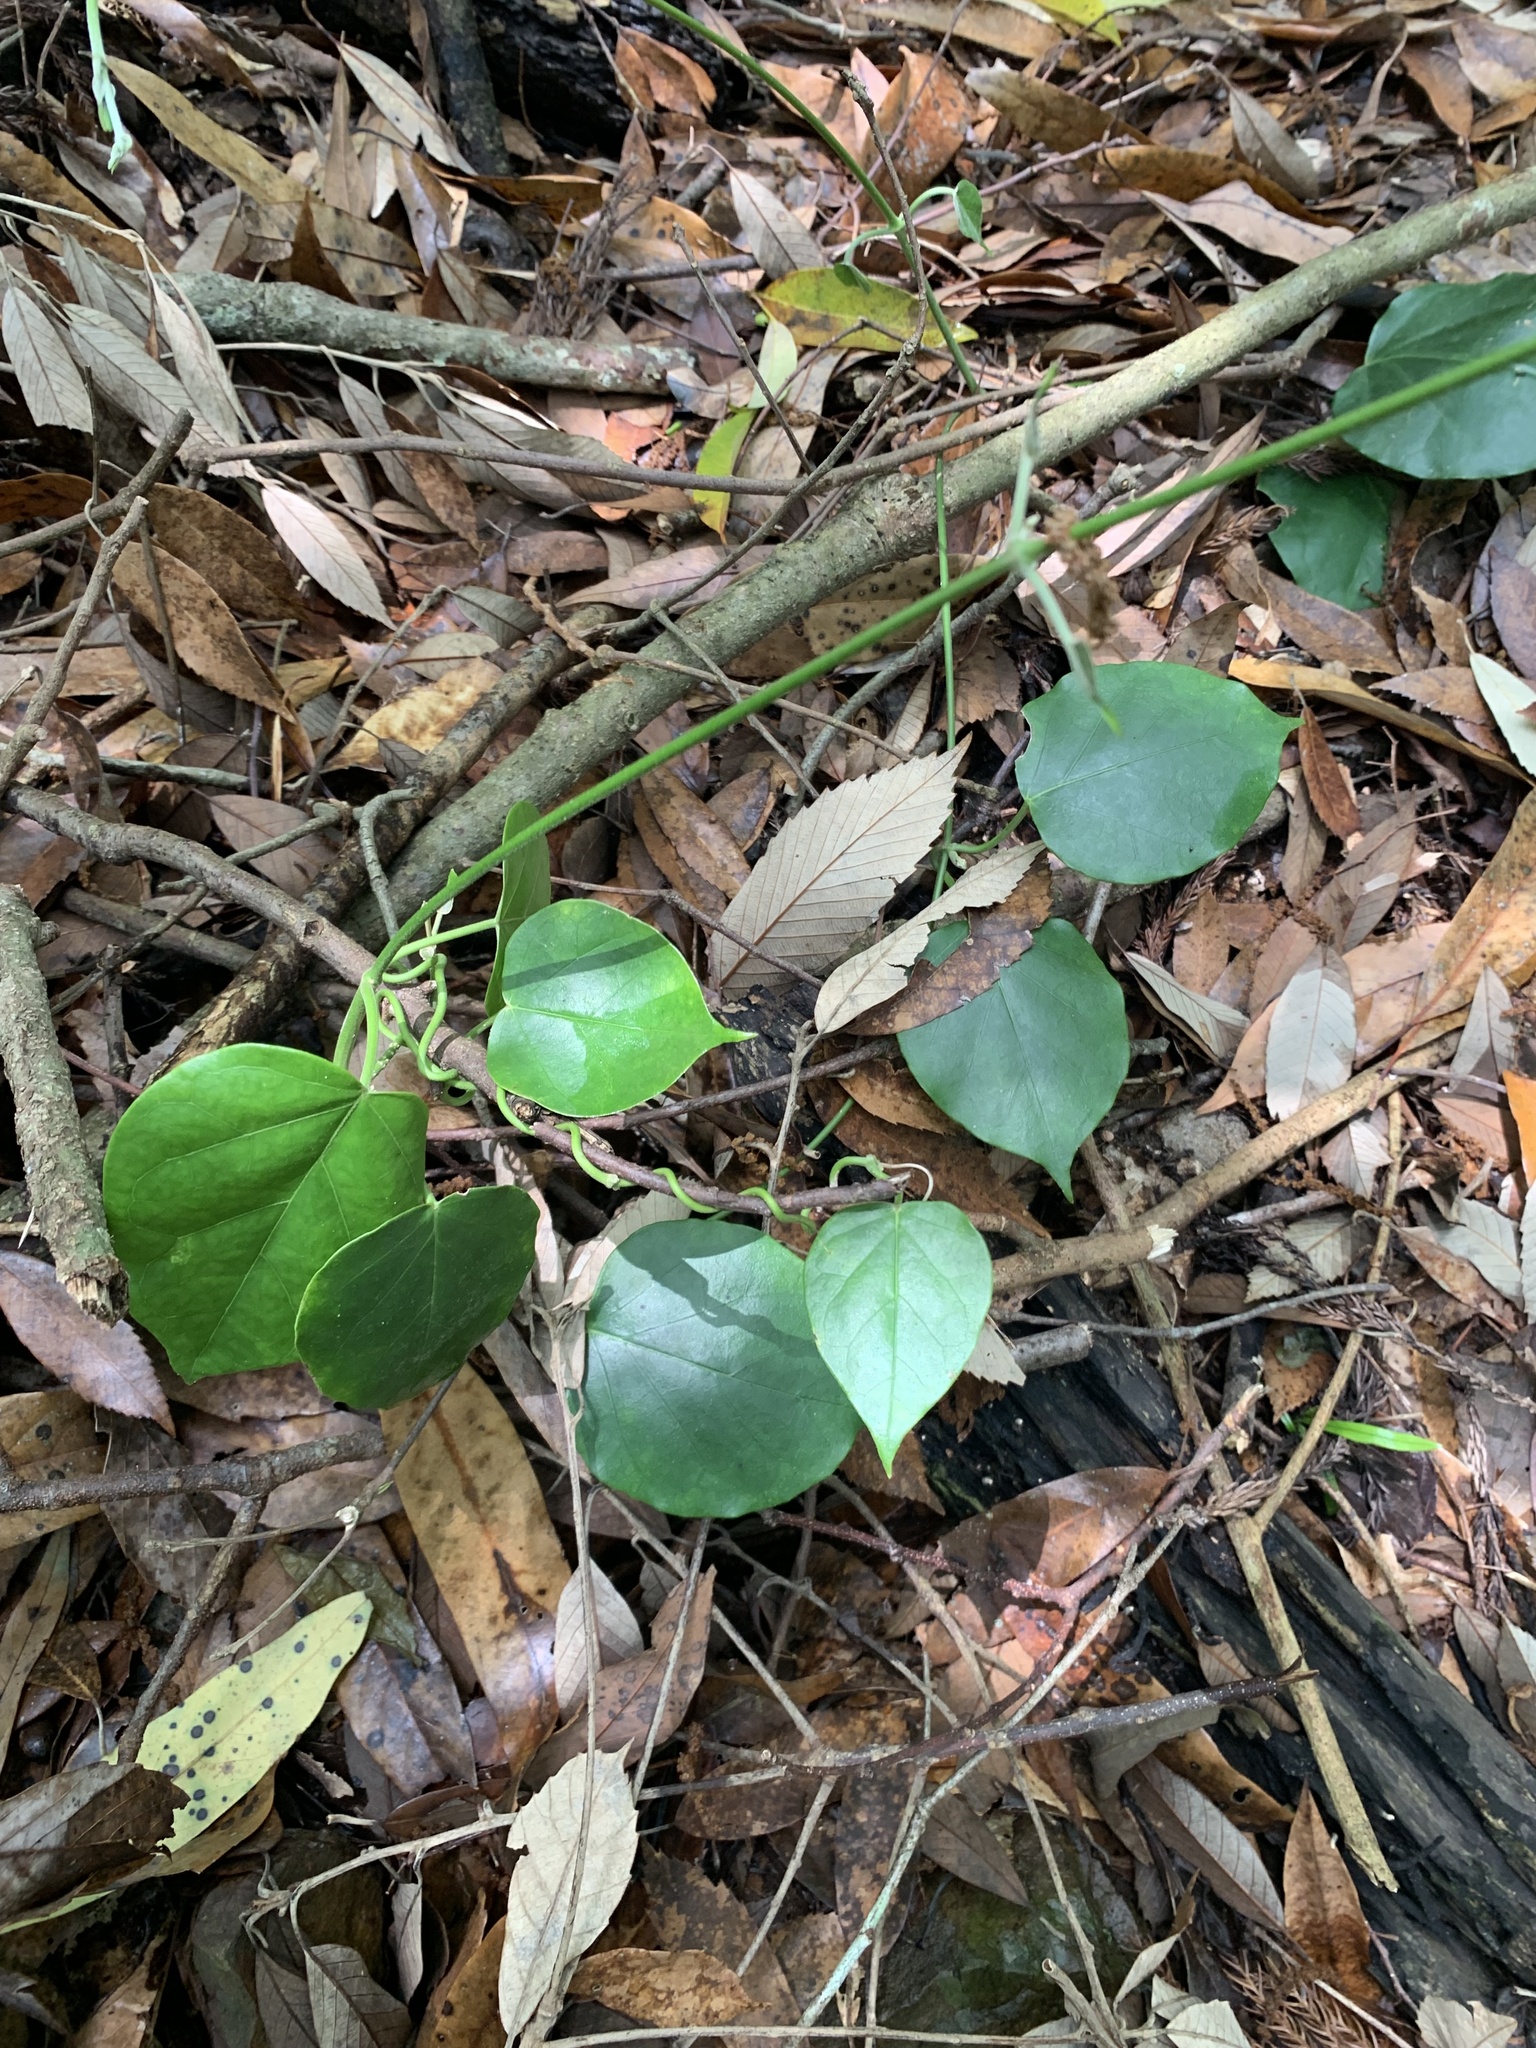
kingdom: Plantae
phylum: Tracheophyta
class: Magnoliopsida
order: Gentianales
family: Apocynaceae
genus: Sinomarsdenia
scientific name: Sinomarsdenia tomentosa
